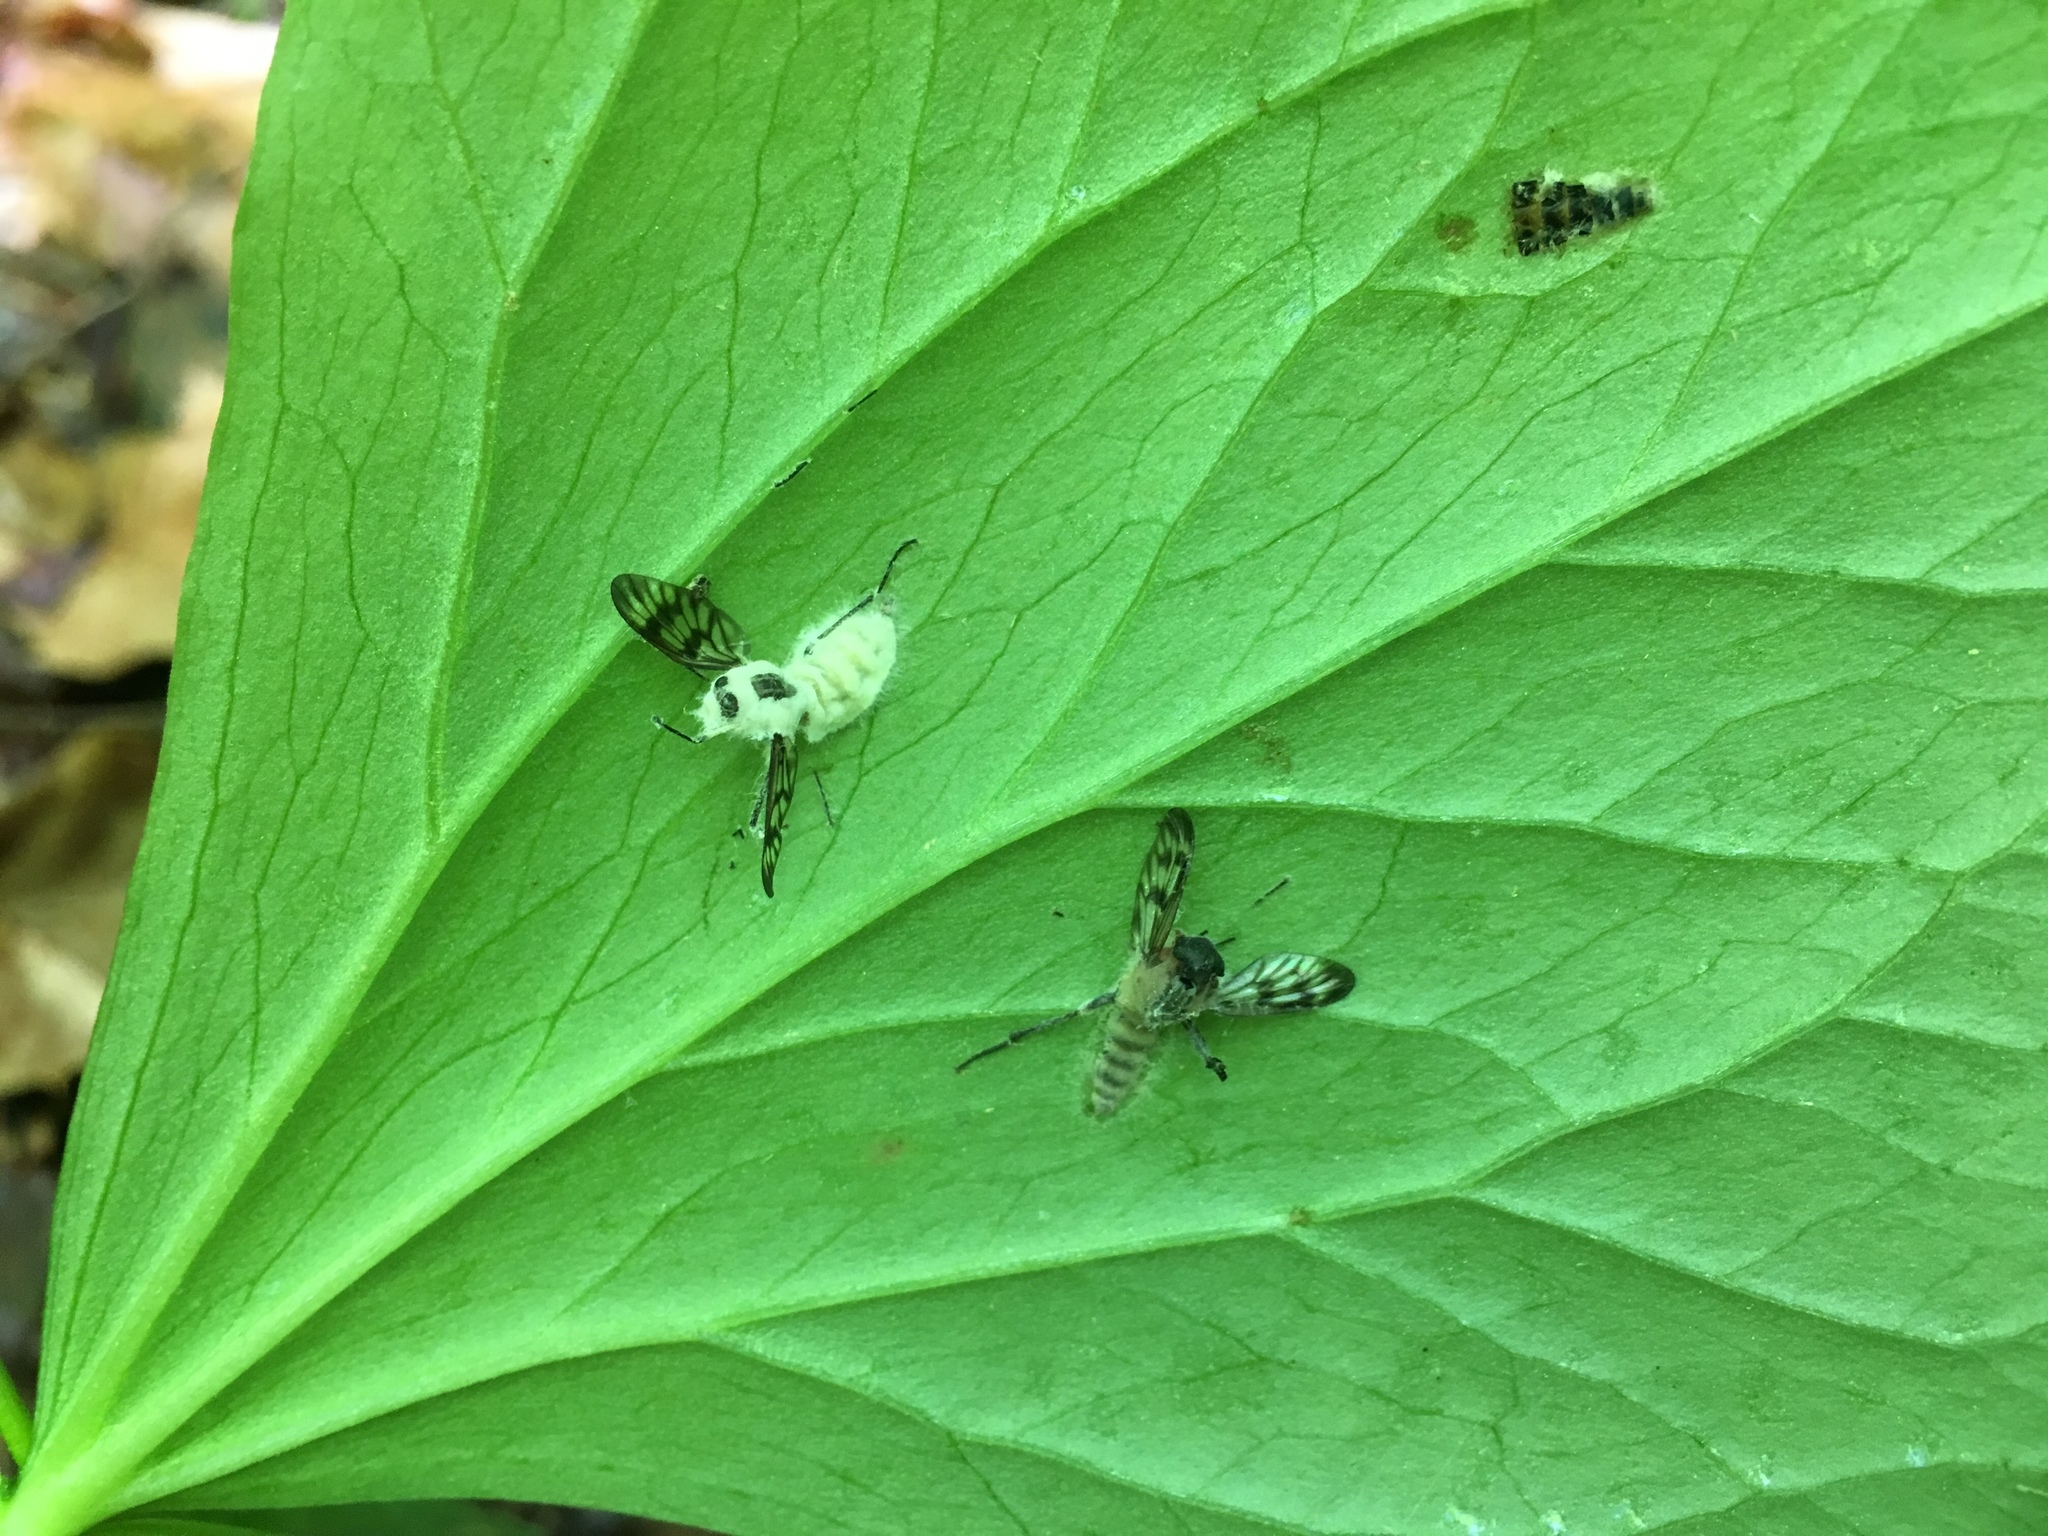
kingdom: Animalia
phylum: Arthropoda
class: Insecta
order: Diptera
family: Rhagionidae
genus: Rhagio
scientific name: Rhagio mystaceus
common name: Common snipe fly
